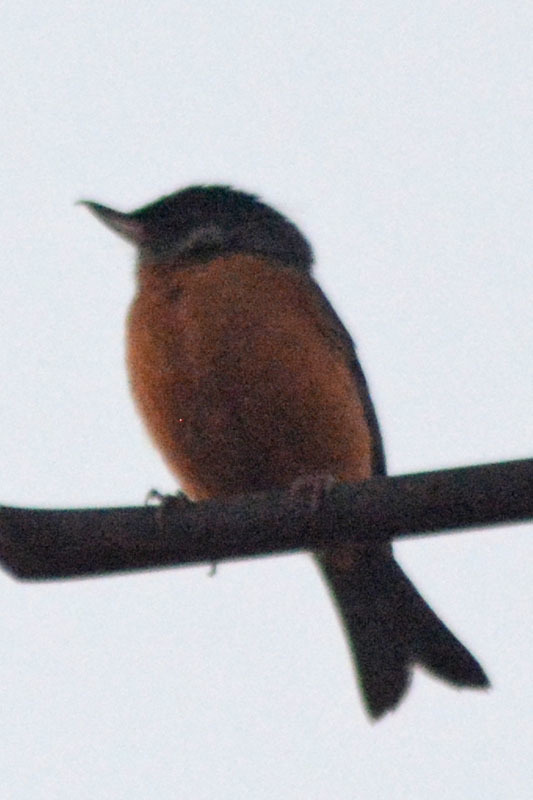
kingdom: Animalia
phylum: Chordata
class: Aves
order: Passeriformes
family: Thraupidae
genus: Diglossa
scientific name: Diglossa baritula
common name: Cinnamon-bellied flowerpiercer
